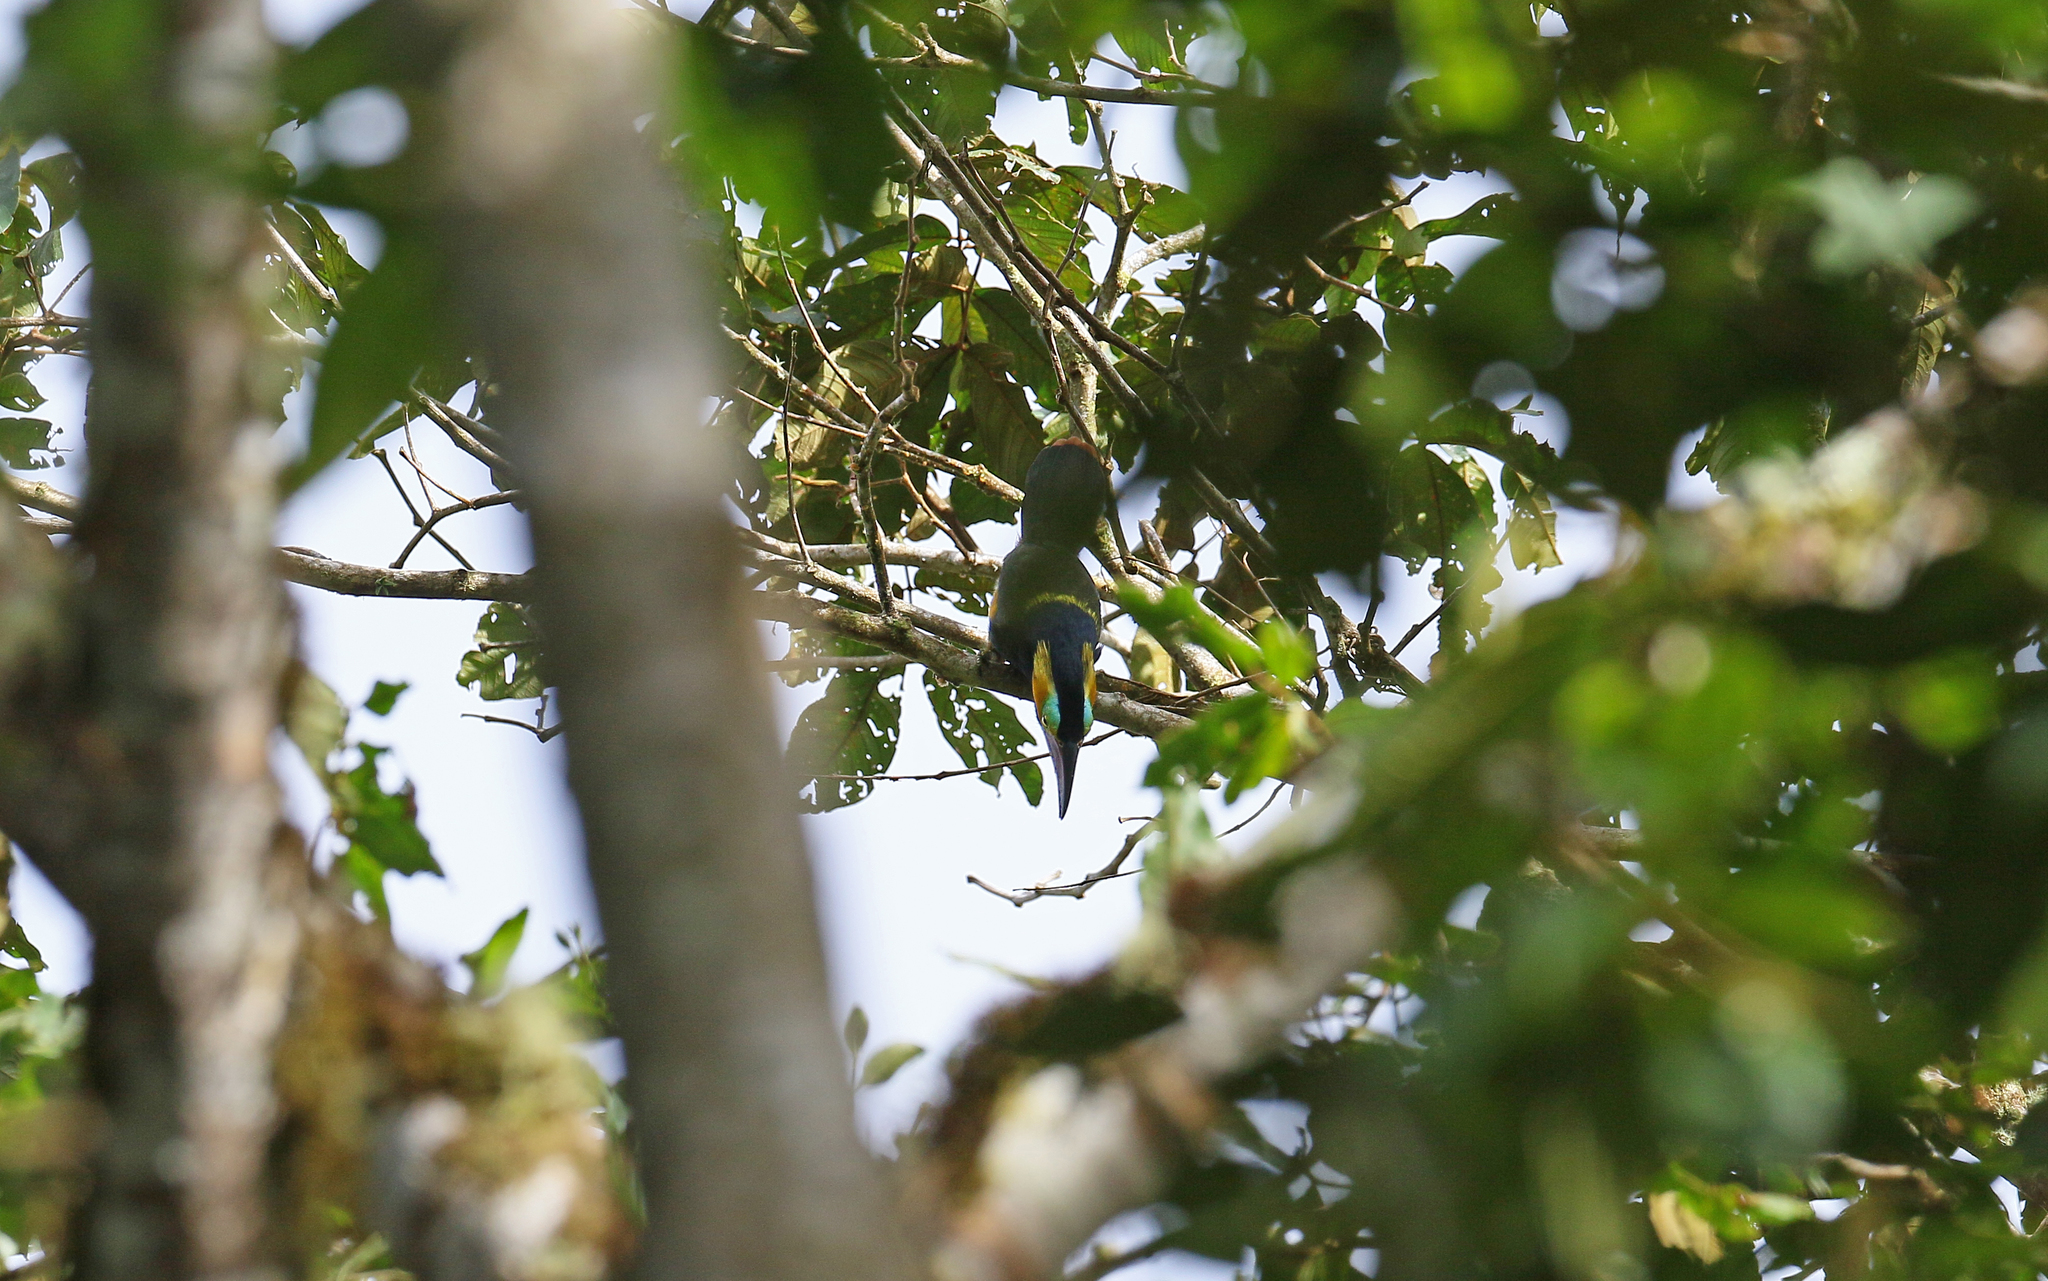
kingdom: Animalia
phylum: Chordata
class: Aves
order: Piciformes
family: Ramphastidae
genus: Selenidera
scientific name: Selenidera reinwardtii
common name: Golden-collared toucanet
